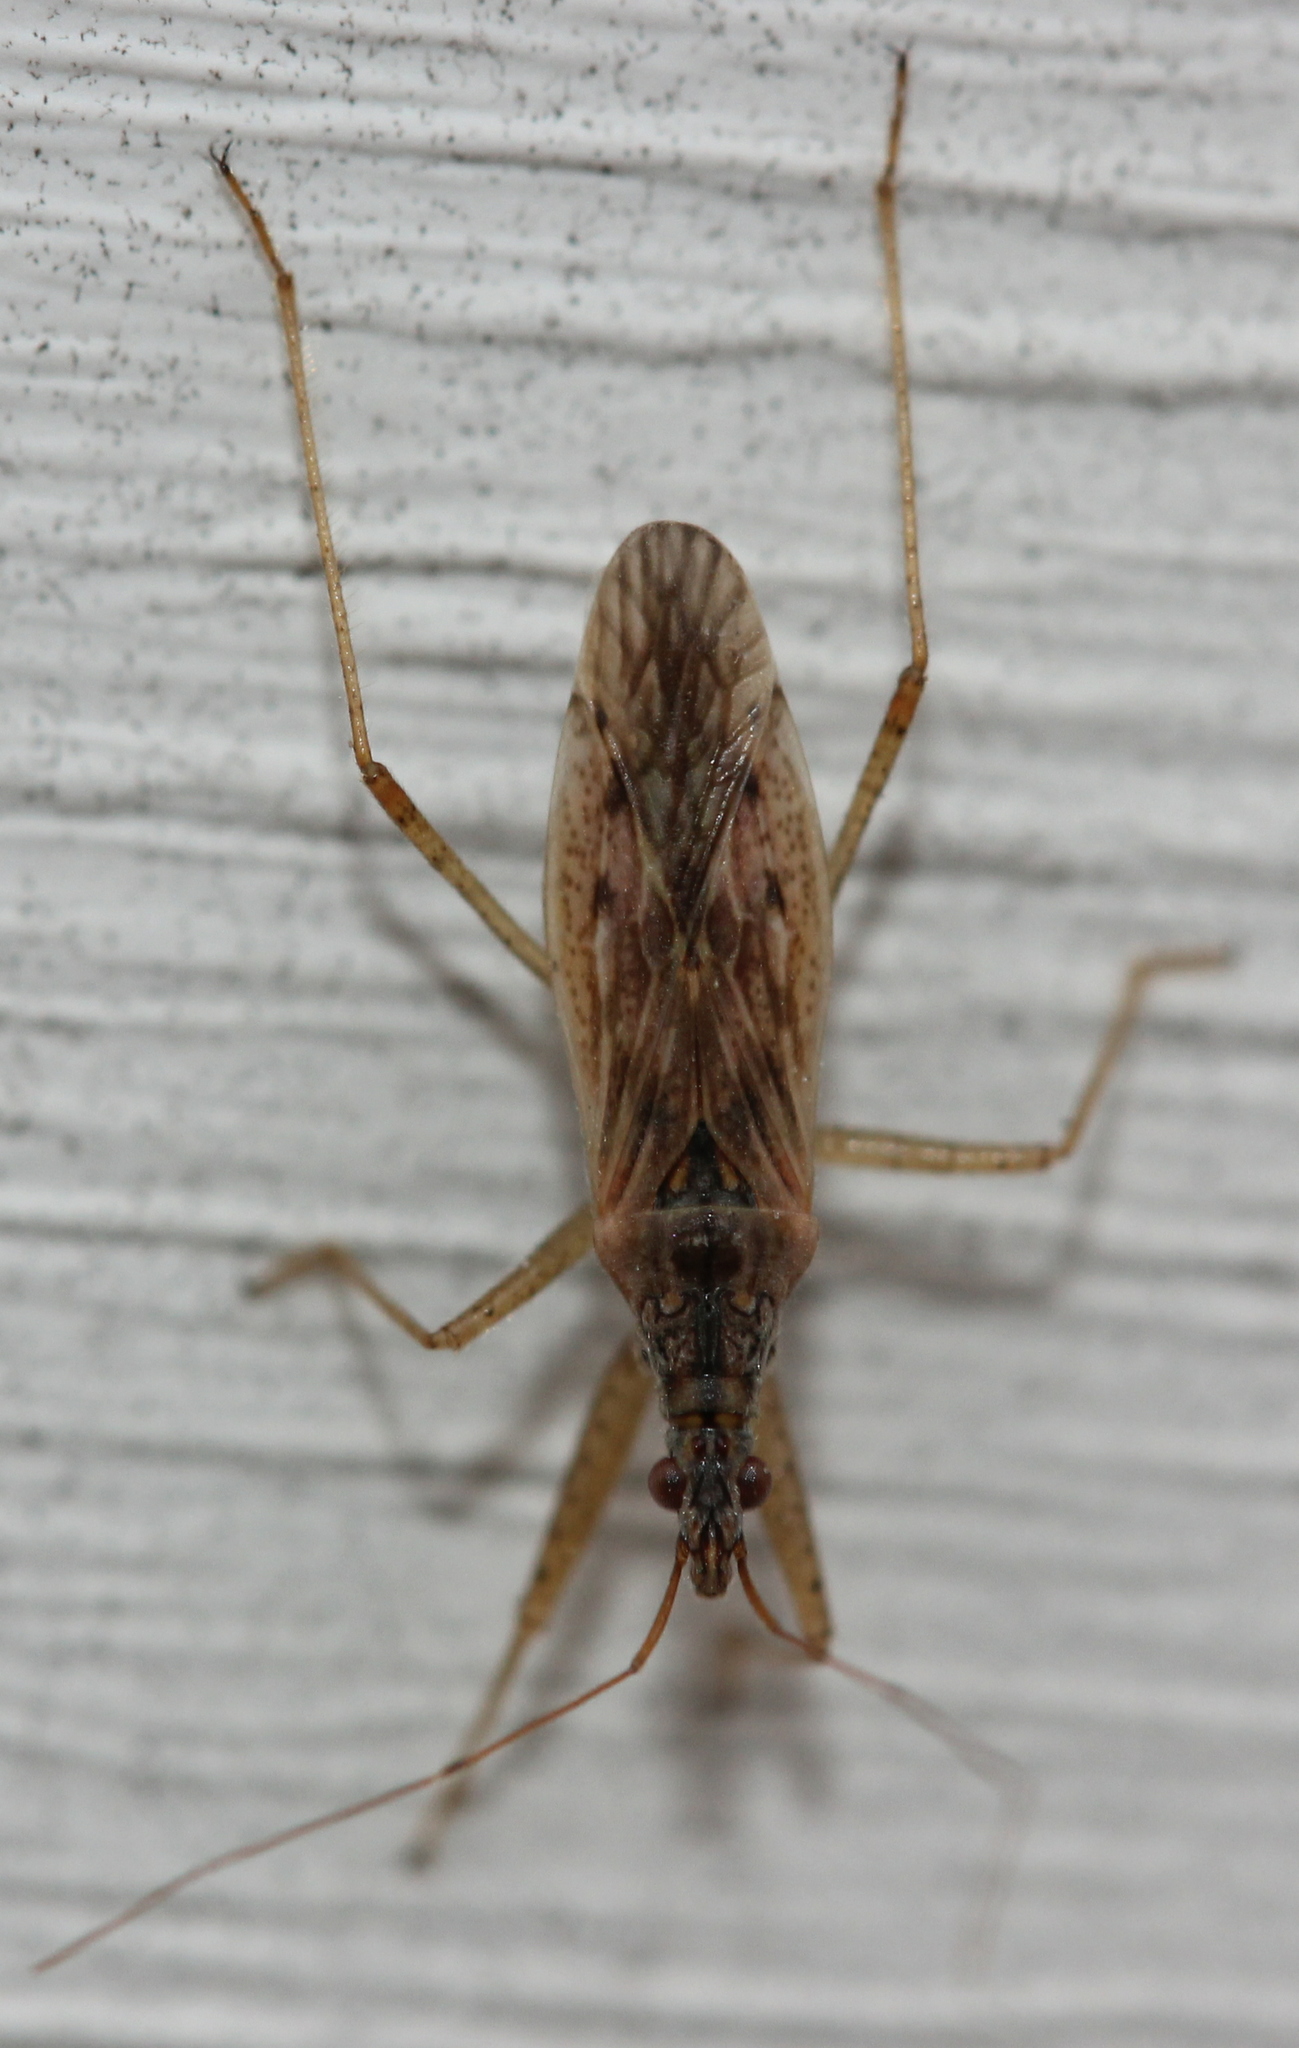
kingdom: Animalia
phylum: Arthropoda
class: Insecta
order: Hemiptera
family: Nabidae
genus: Nabis
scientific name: Nabis roseipennis
